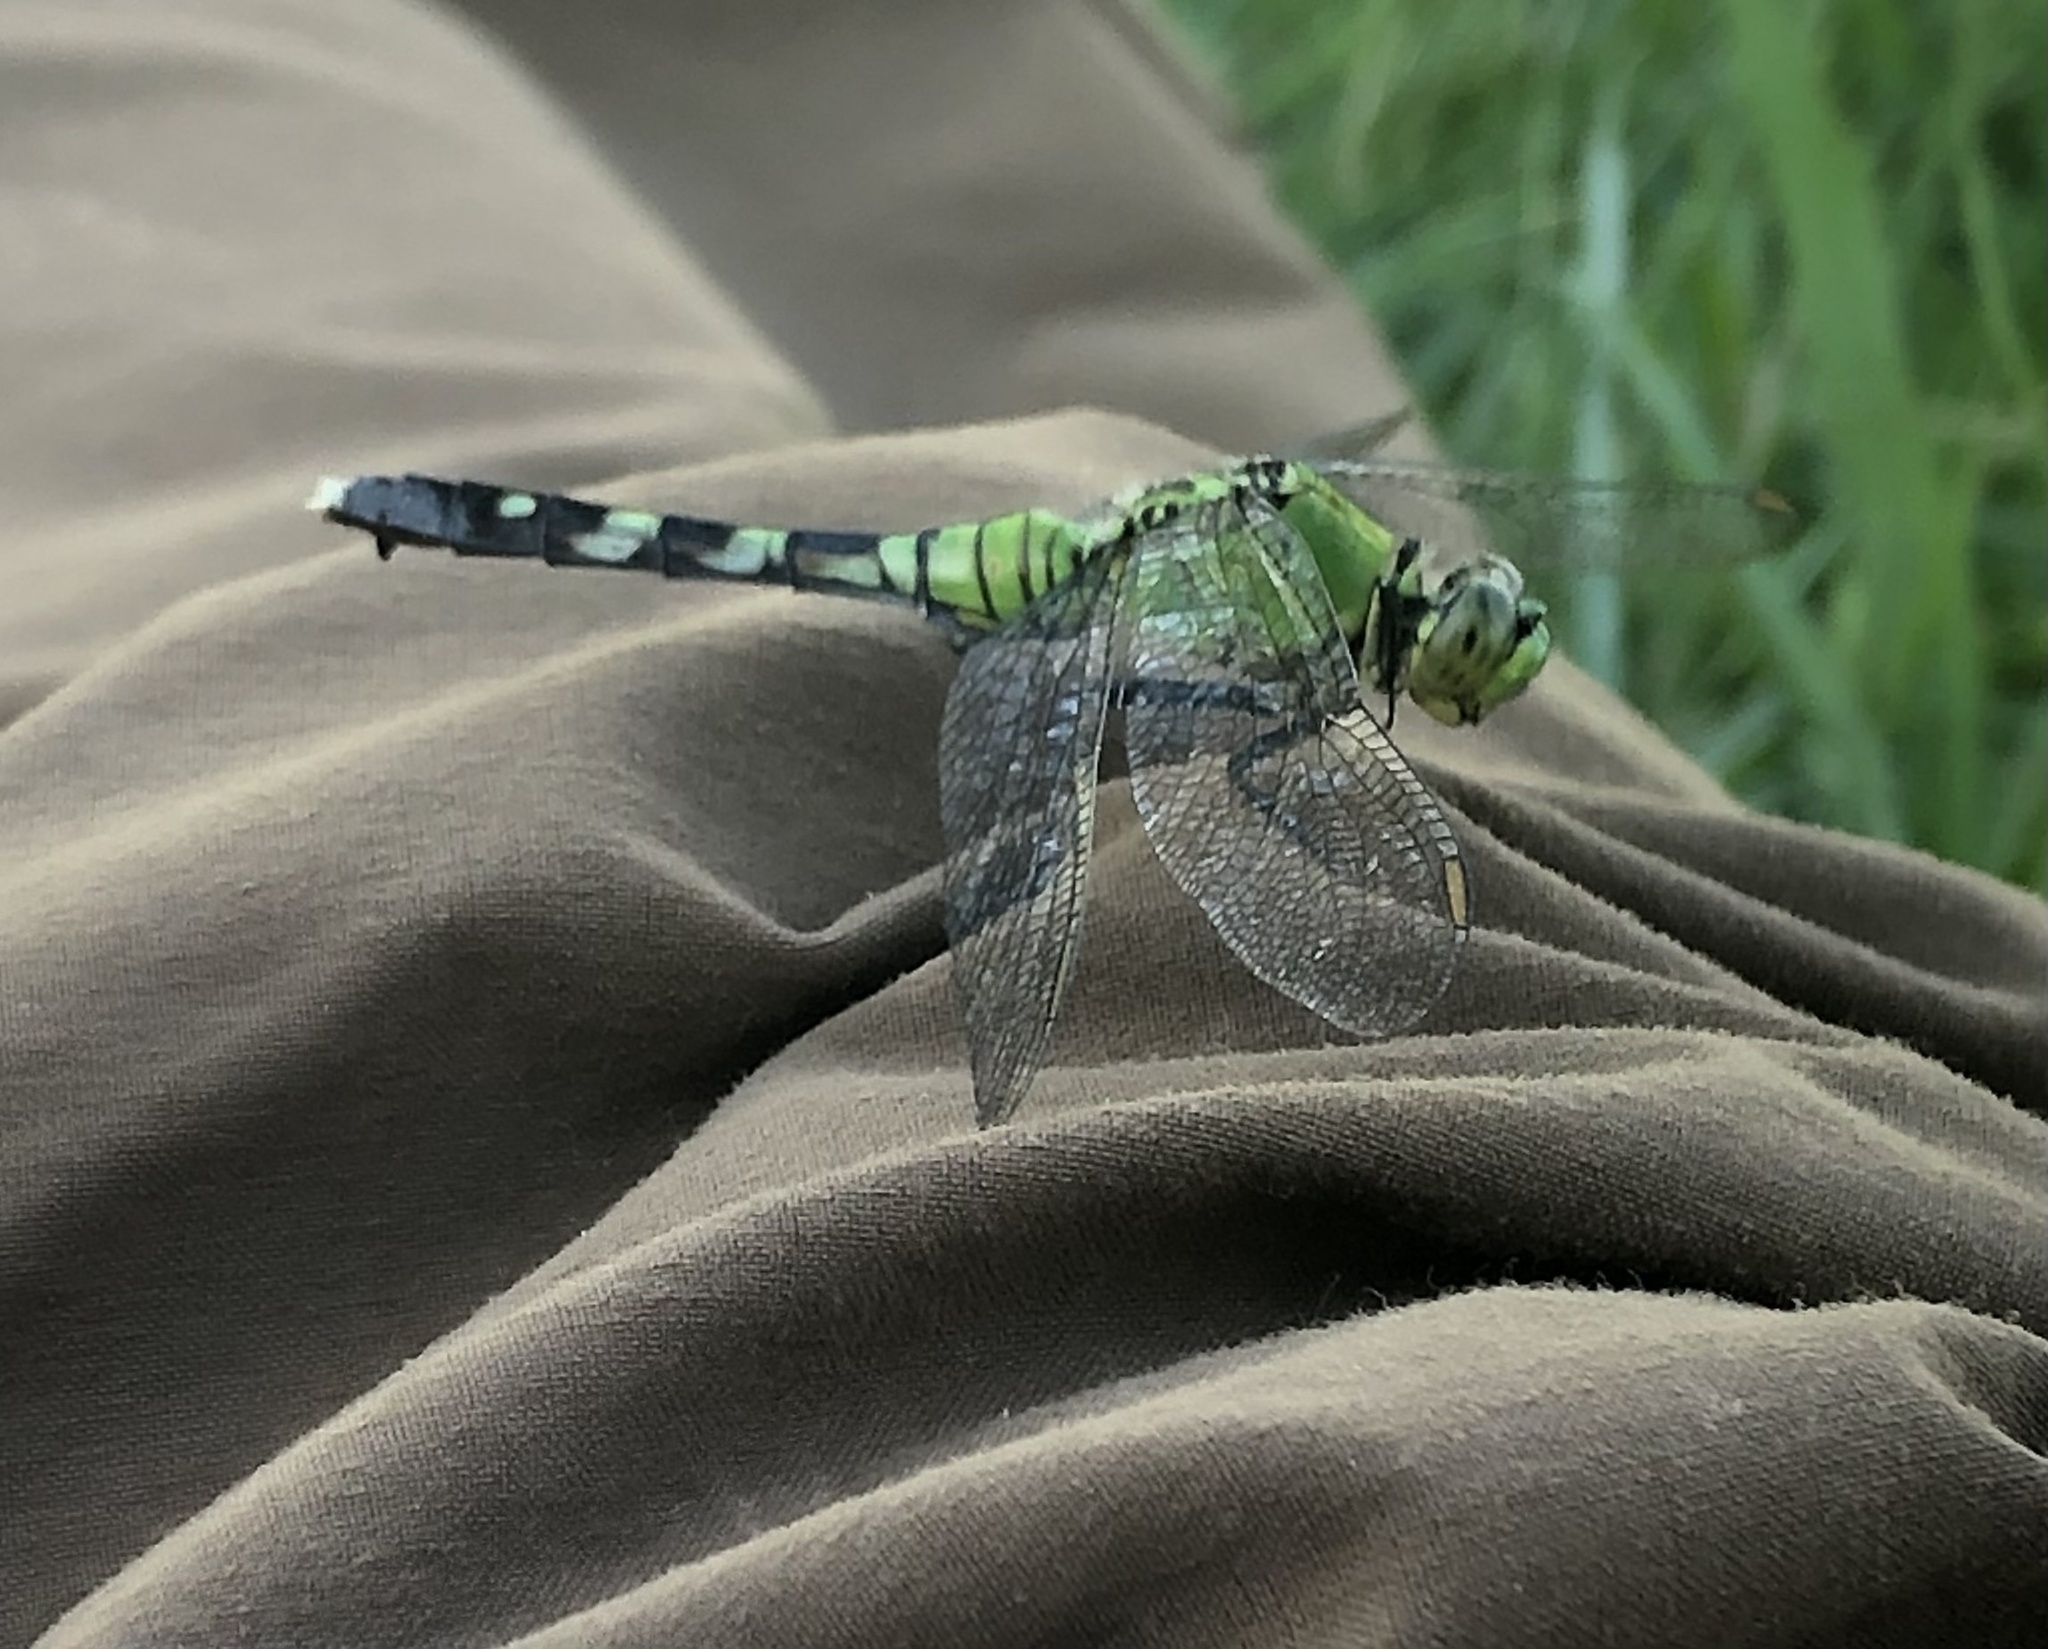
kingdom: Animalia
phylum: Arthropoda
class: Insecta
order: Odonata
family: Libellulidae
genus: Erythemis
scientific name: Erythemis simplicicollis
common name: Eastern pondhawk
